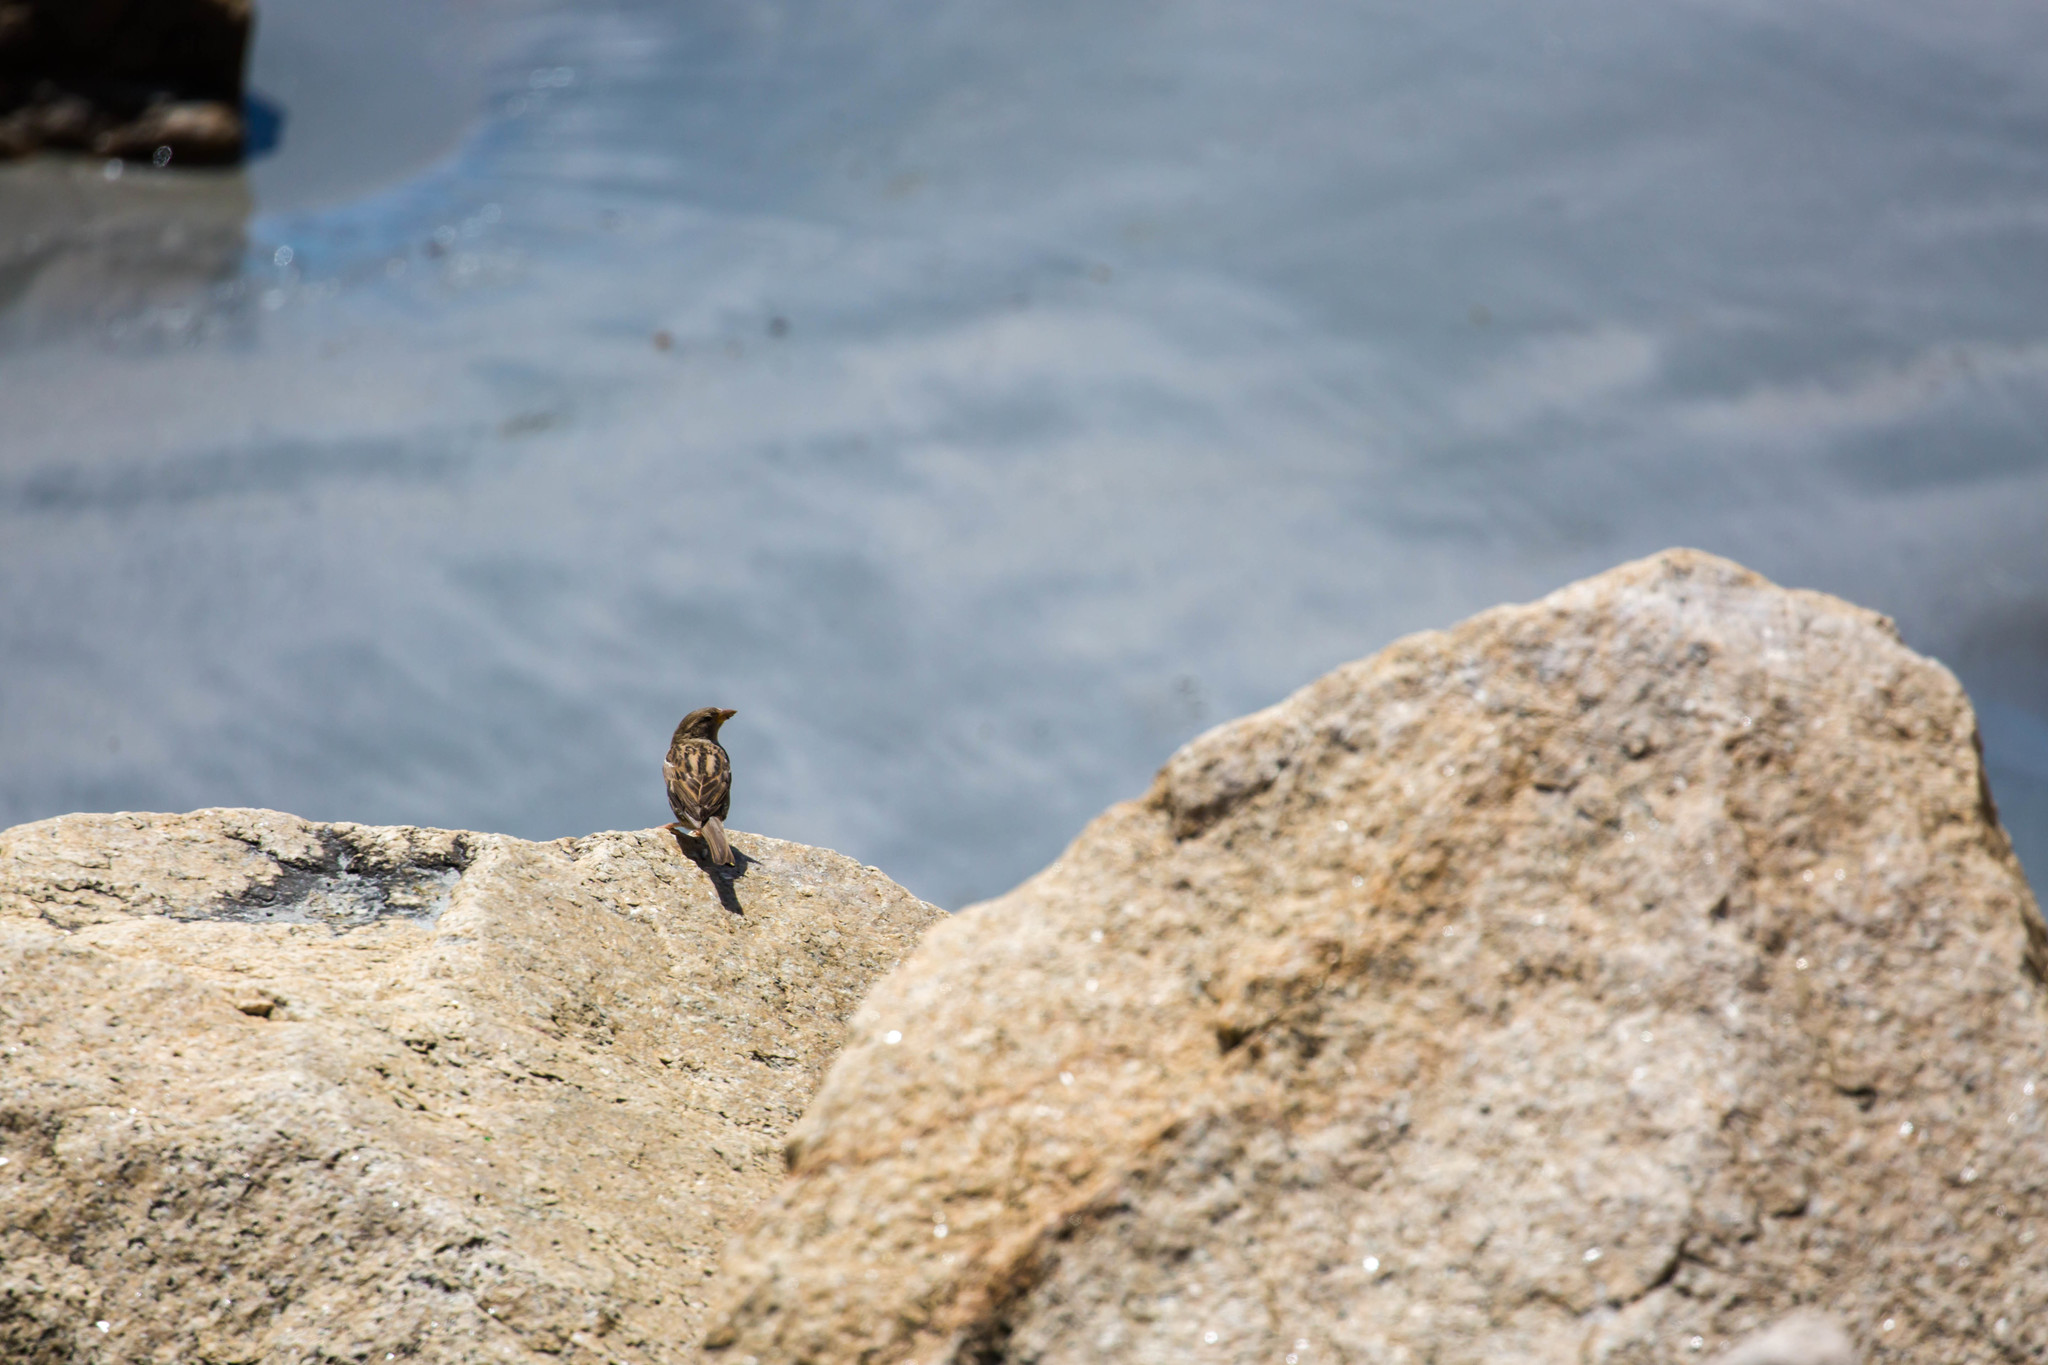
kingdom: Animalia
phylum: Chordata
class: Aves
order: Passeriformes
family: Passeridae
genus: Passer
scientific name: Passer domesticus
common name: House sparrow
